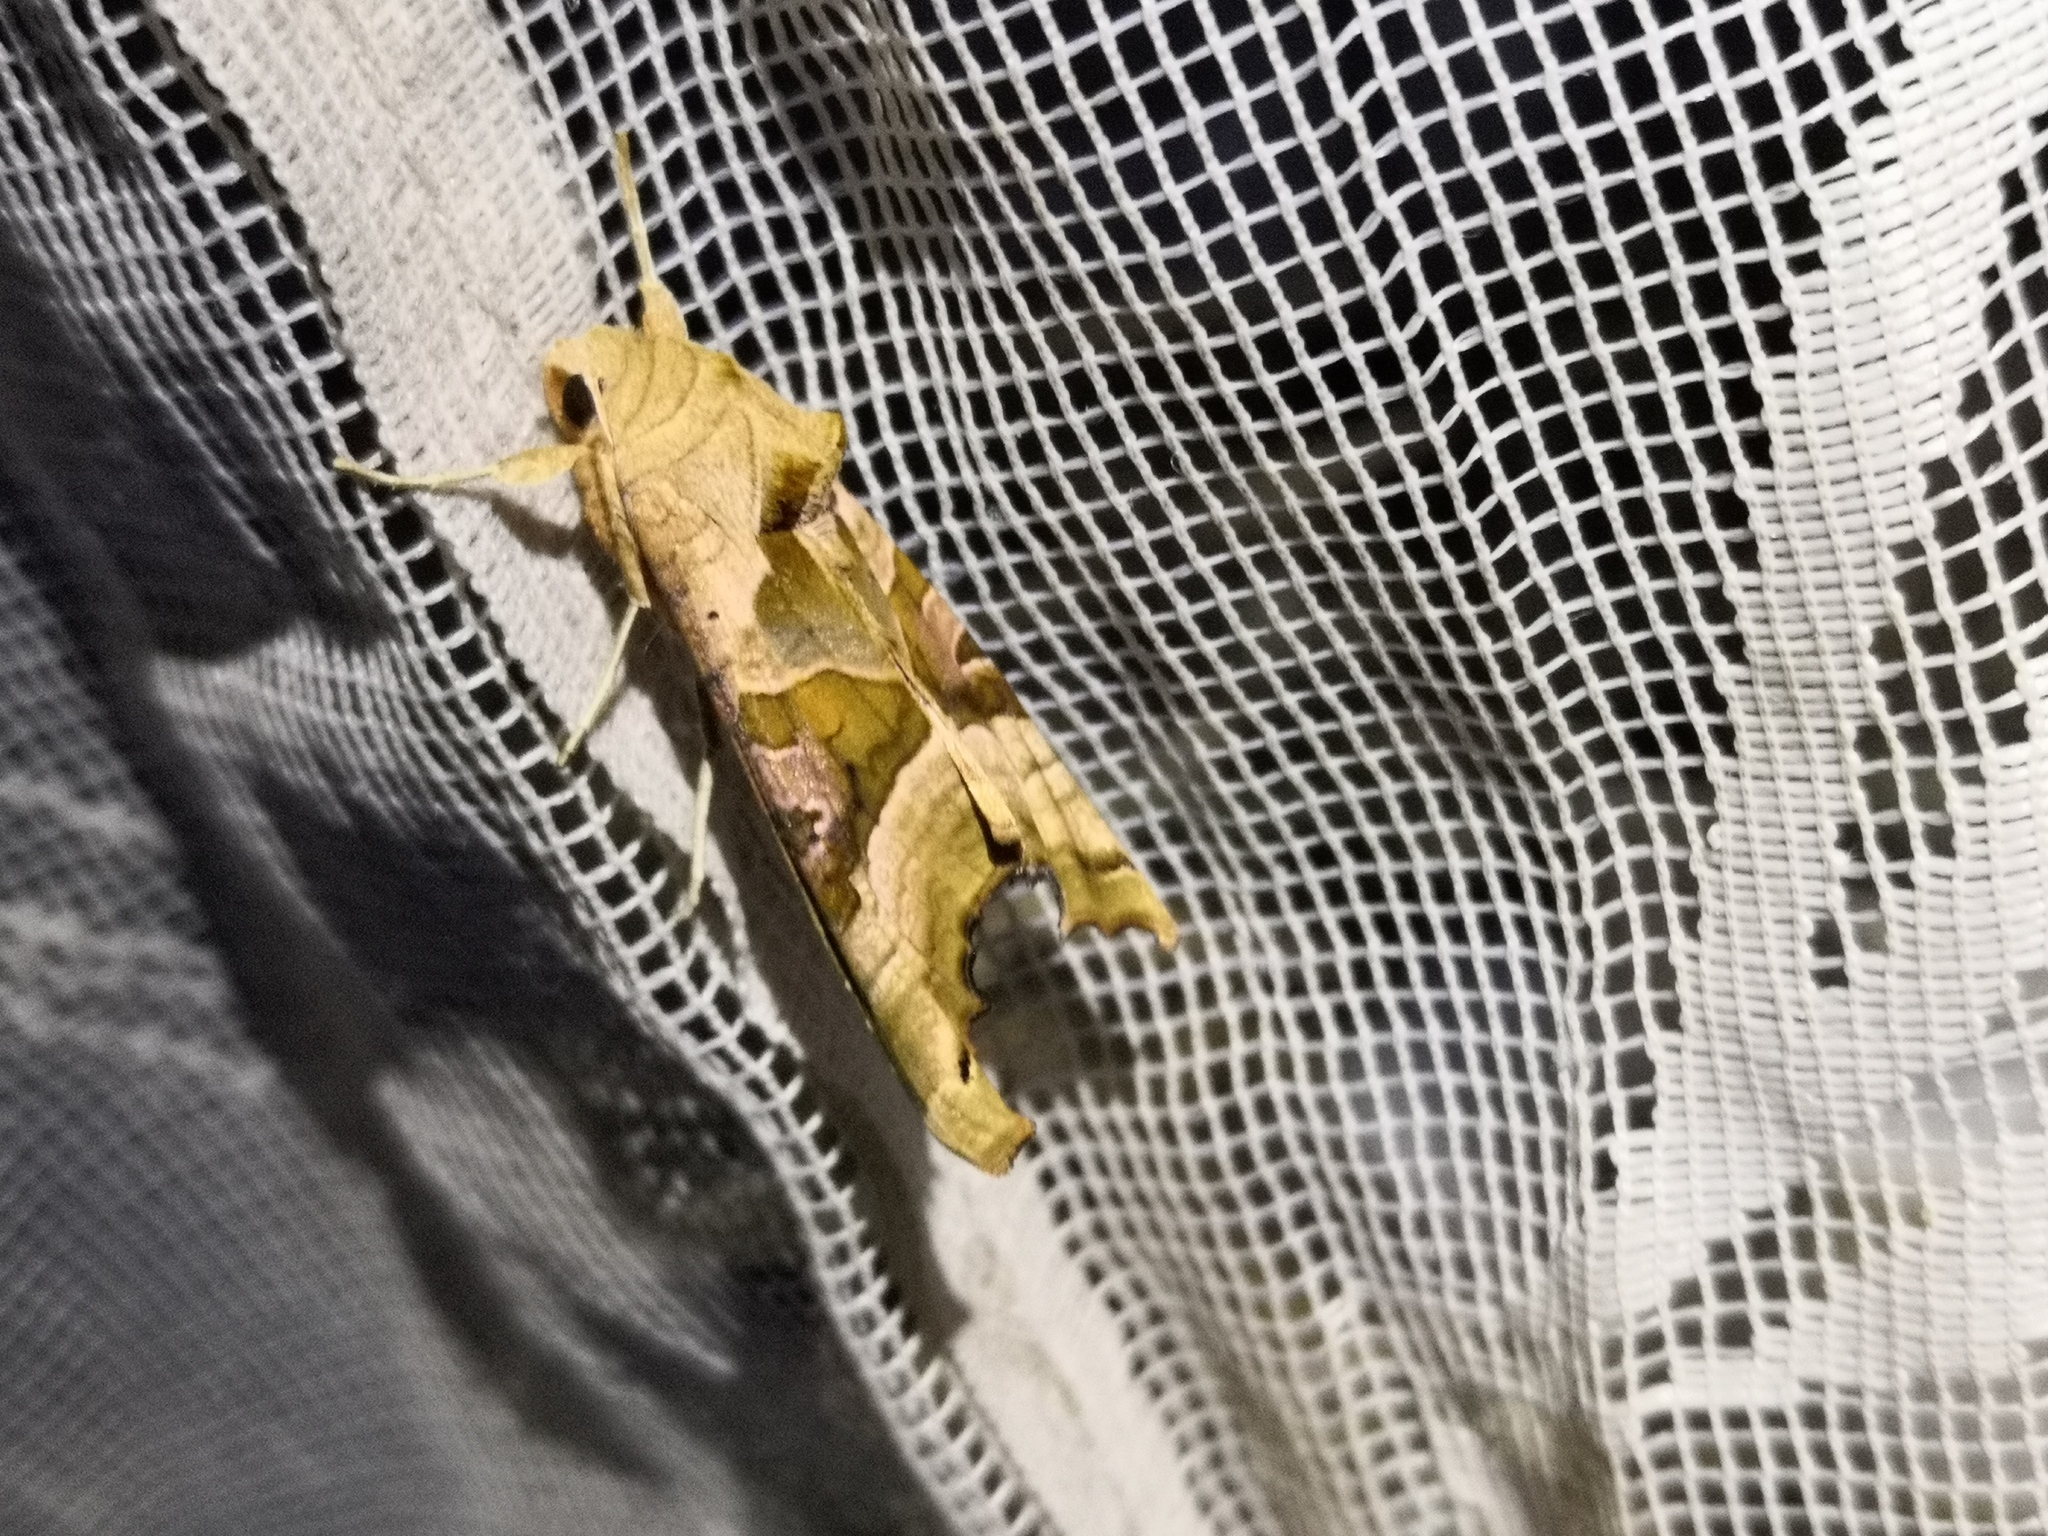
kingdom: Animalia
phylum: Arthropoda
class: Insecta
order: Lepidoptera
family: Noctuidae
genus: Phlogophora
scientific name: Phlogophora meticulosa
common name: Angle shades
